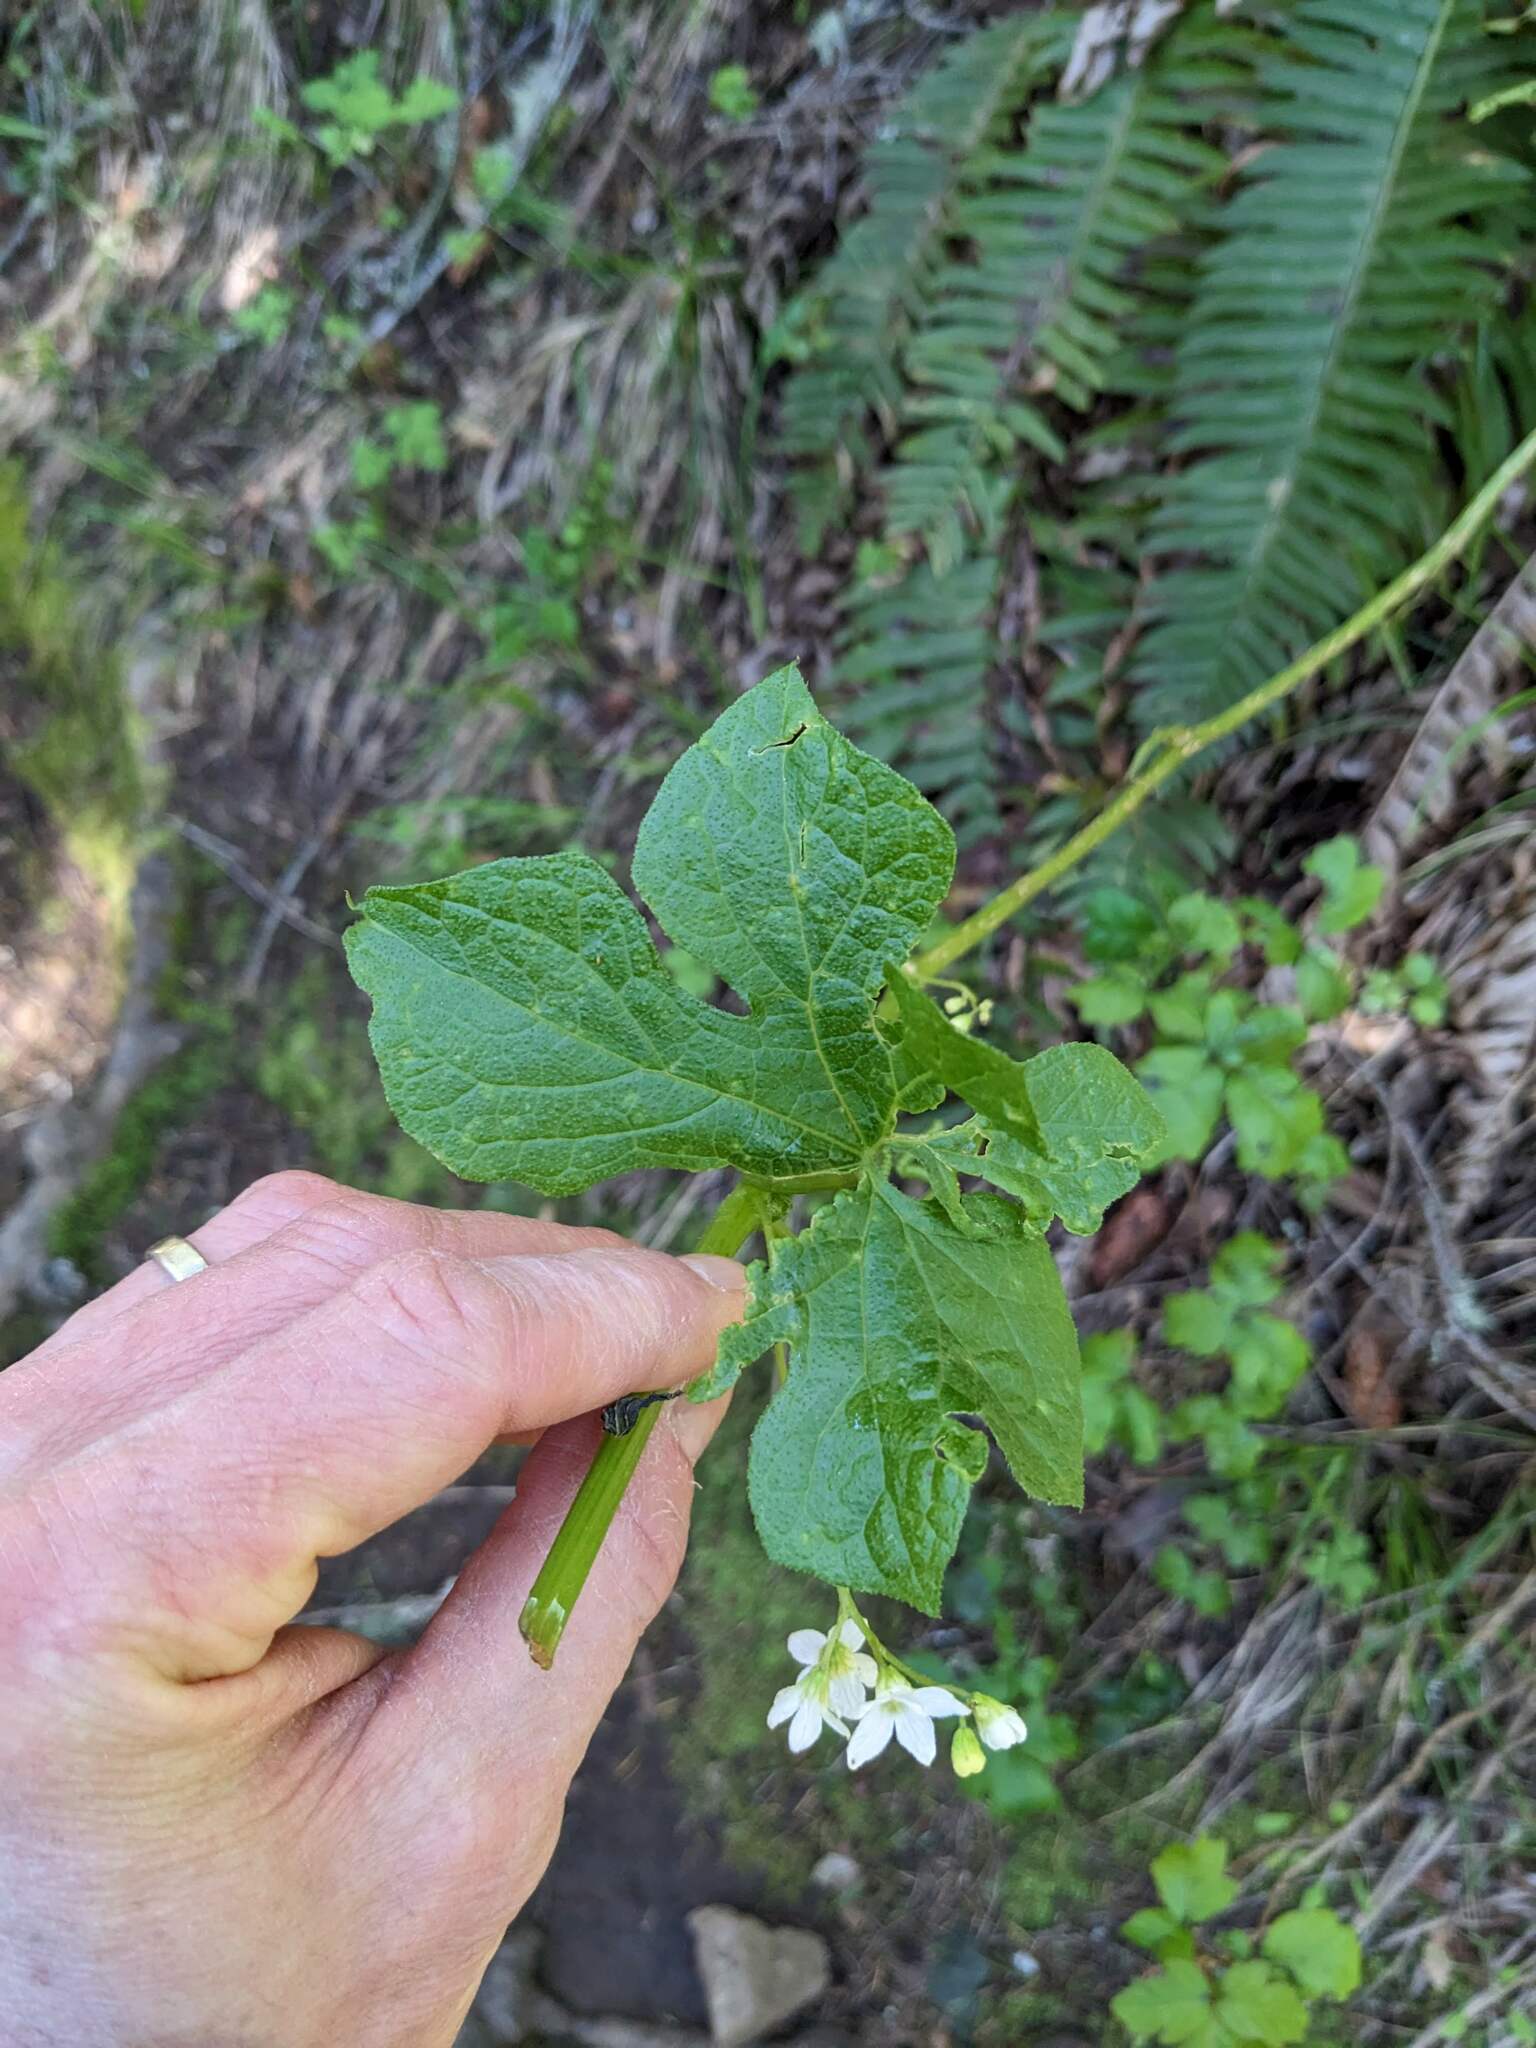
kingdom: Plantae
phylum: Tracheophyta
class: Magnoliopsida
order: Cucurbitales
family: Cucurbitaceae
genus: Marah
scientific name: Marah oregana
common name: Coastal manroot
